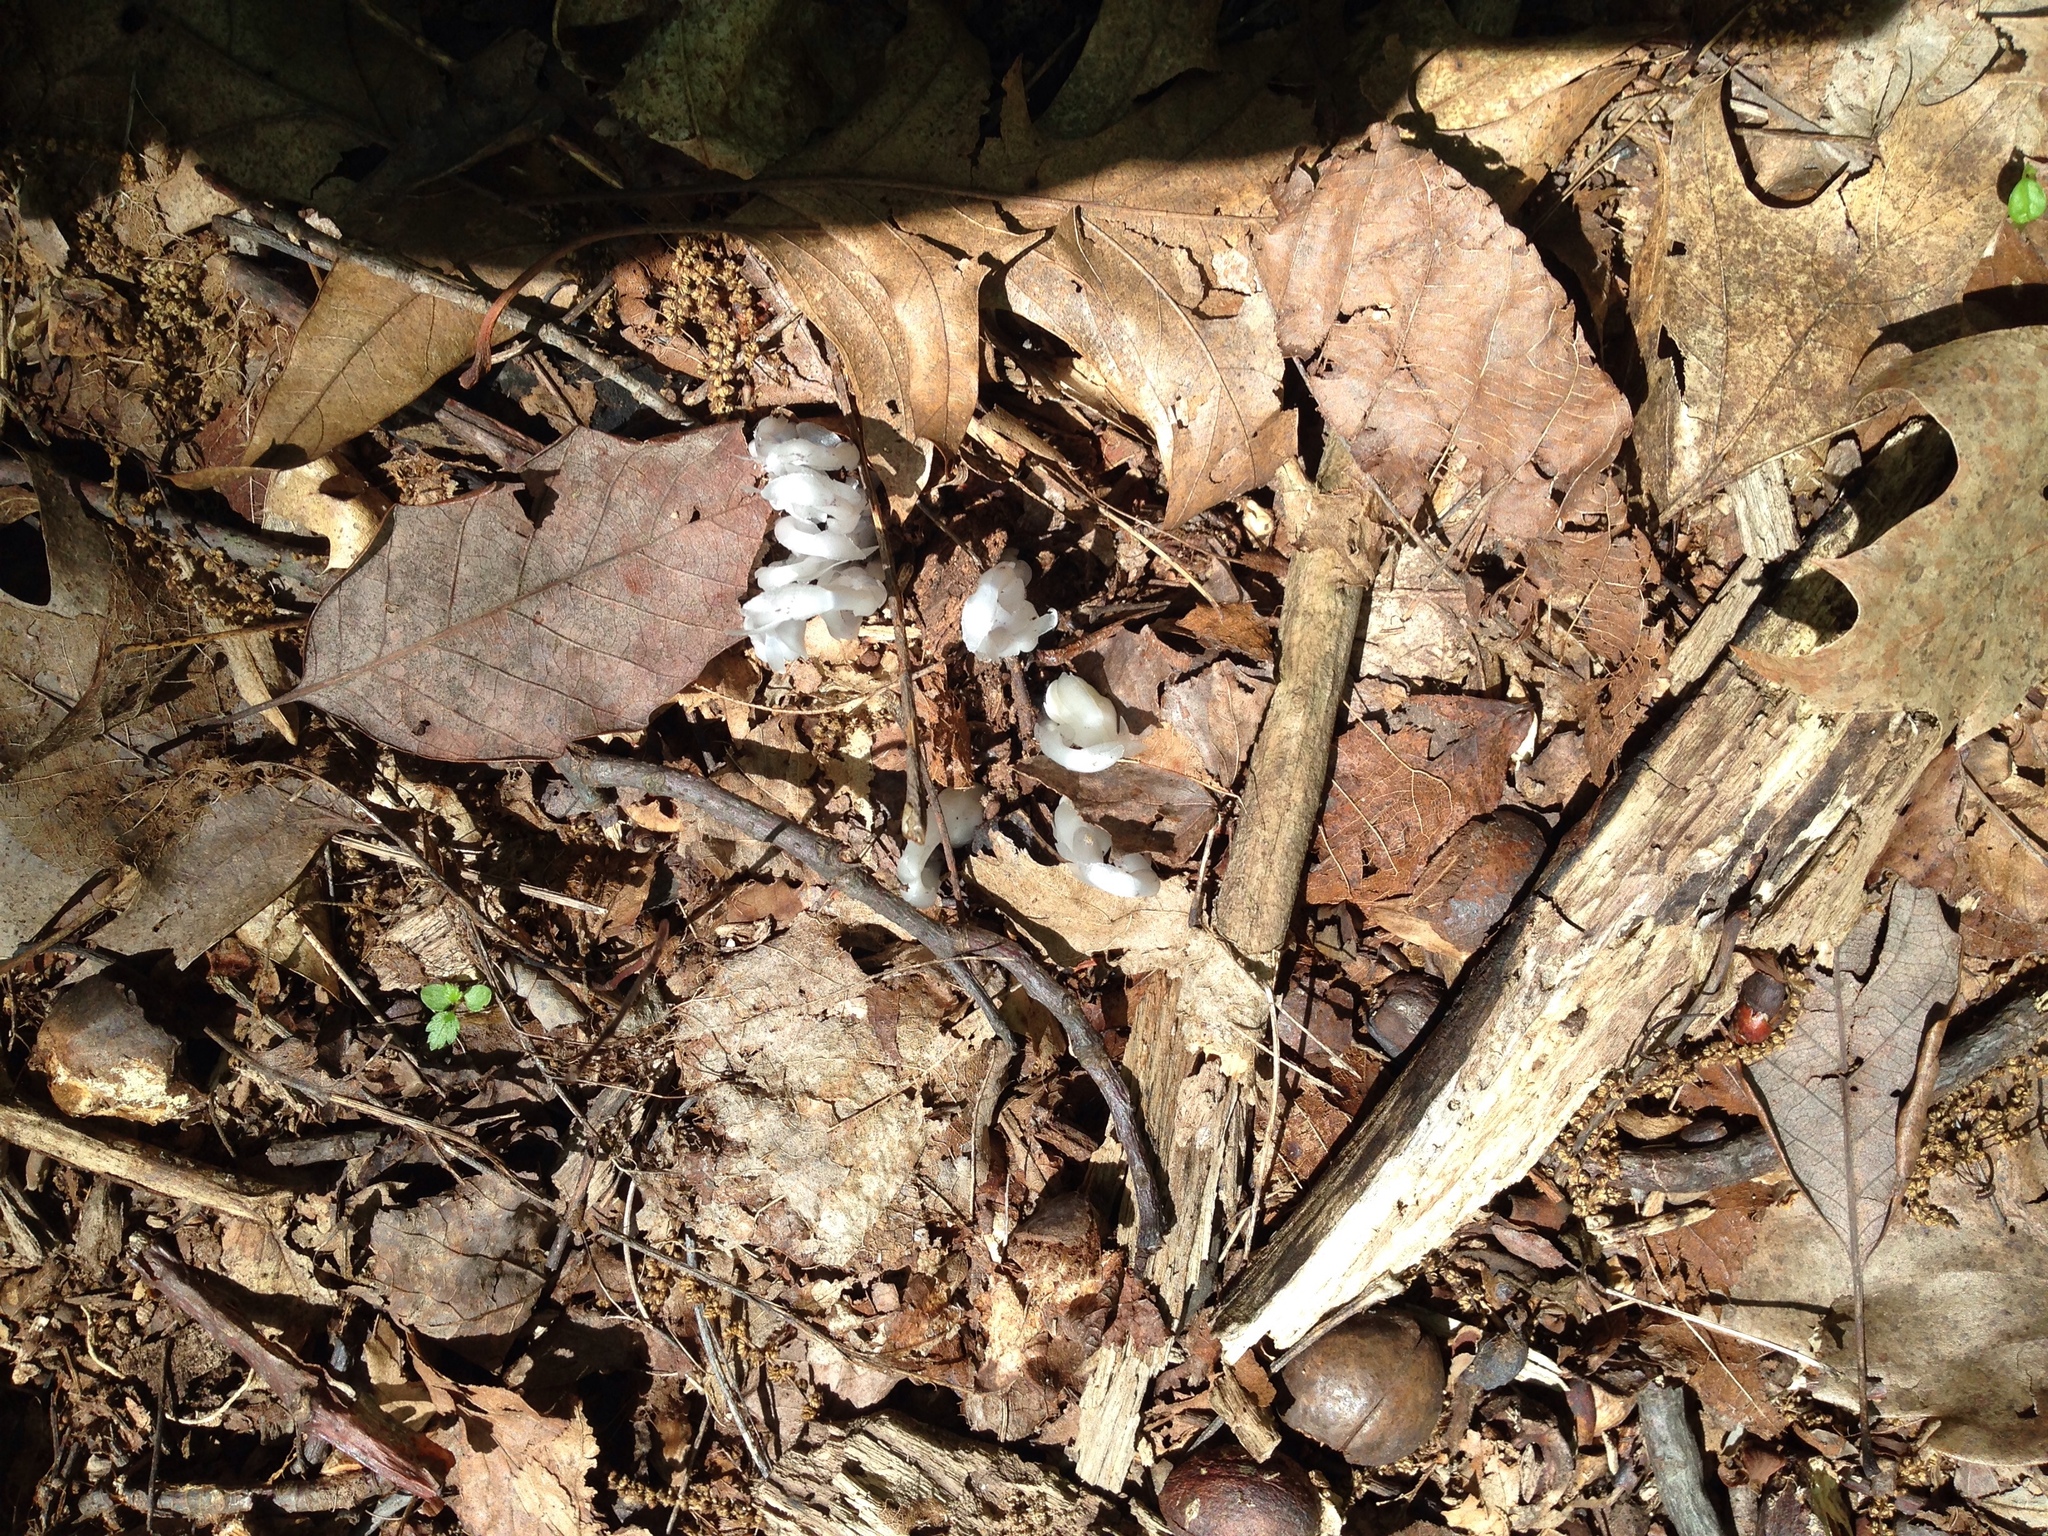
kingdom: Plantae
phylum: Tracheophyta
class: Magnoliopsida
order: Ericales
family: Ericaceae
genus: Monotropa
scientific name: Monotropa uniflora
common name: Convulsion root
